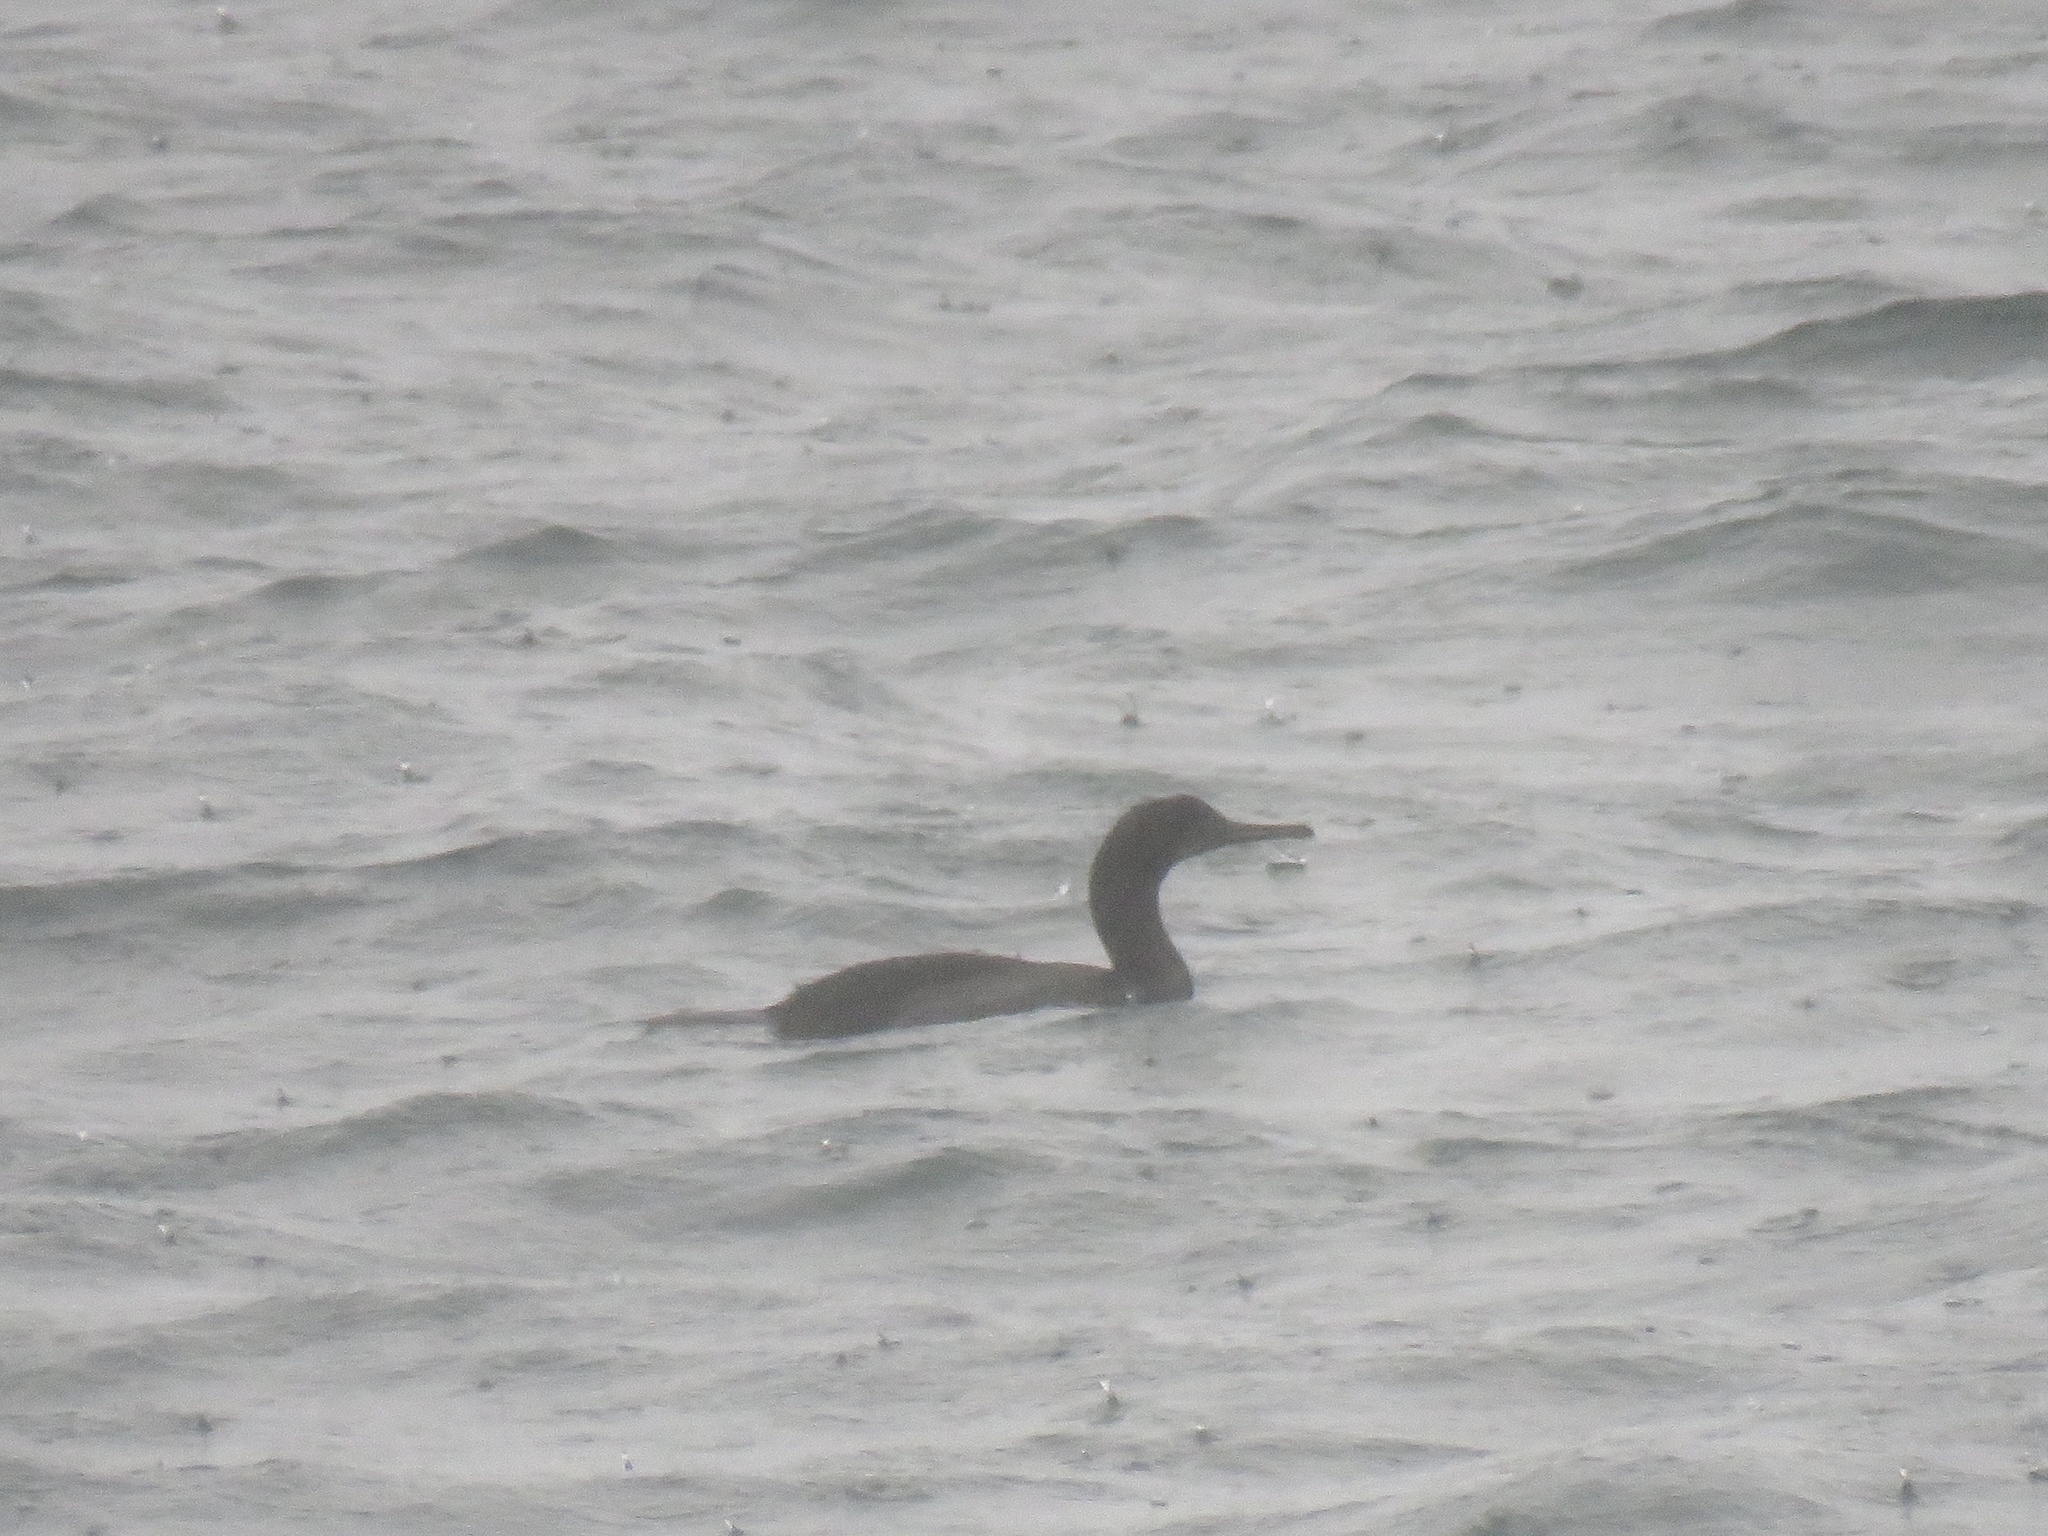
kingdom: Animalia
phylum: Chordata
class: Aves
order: Suliformes
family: Phalacrocoracidae
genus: Urile
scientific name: Urile penicillatus
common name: Brandt's cormorant
